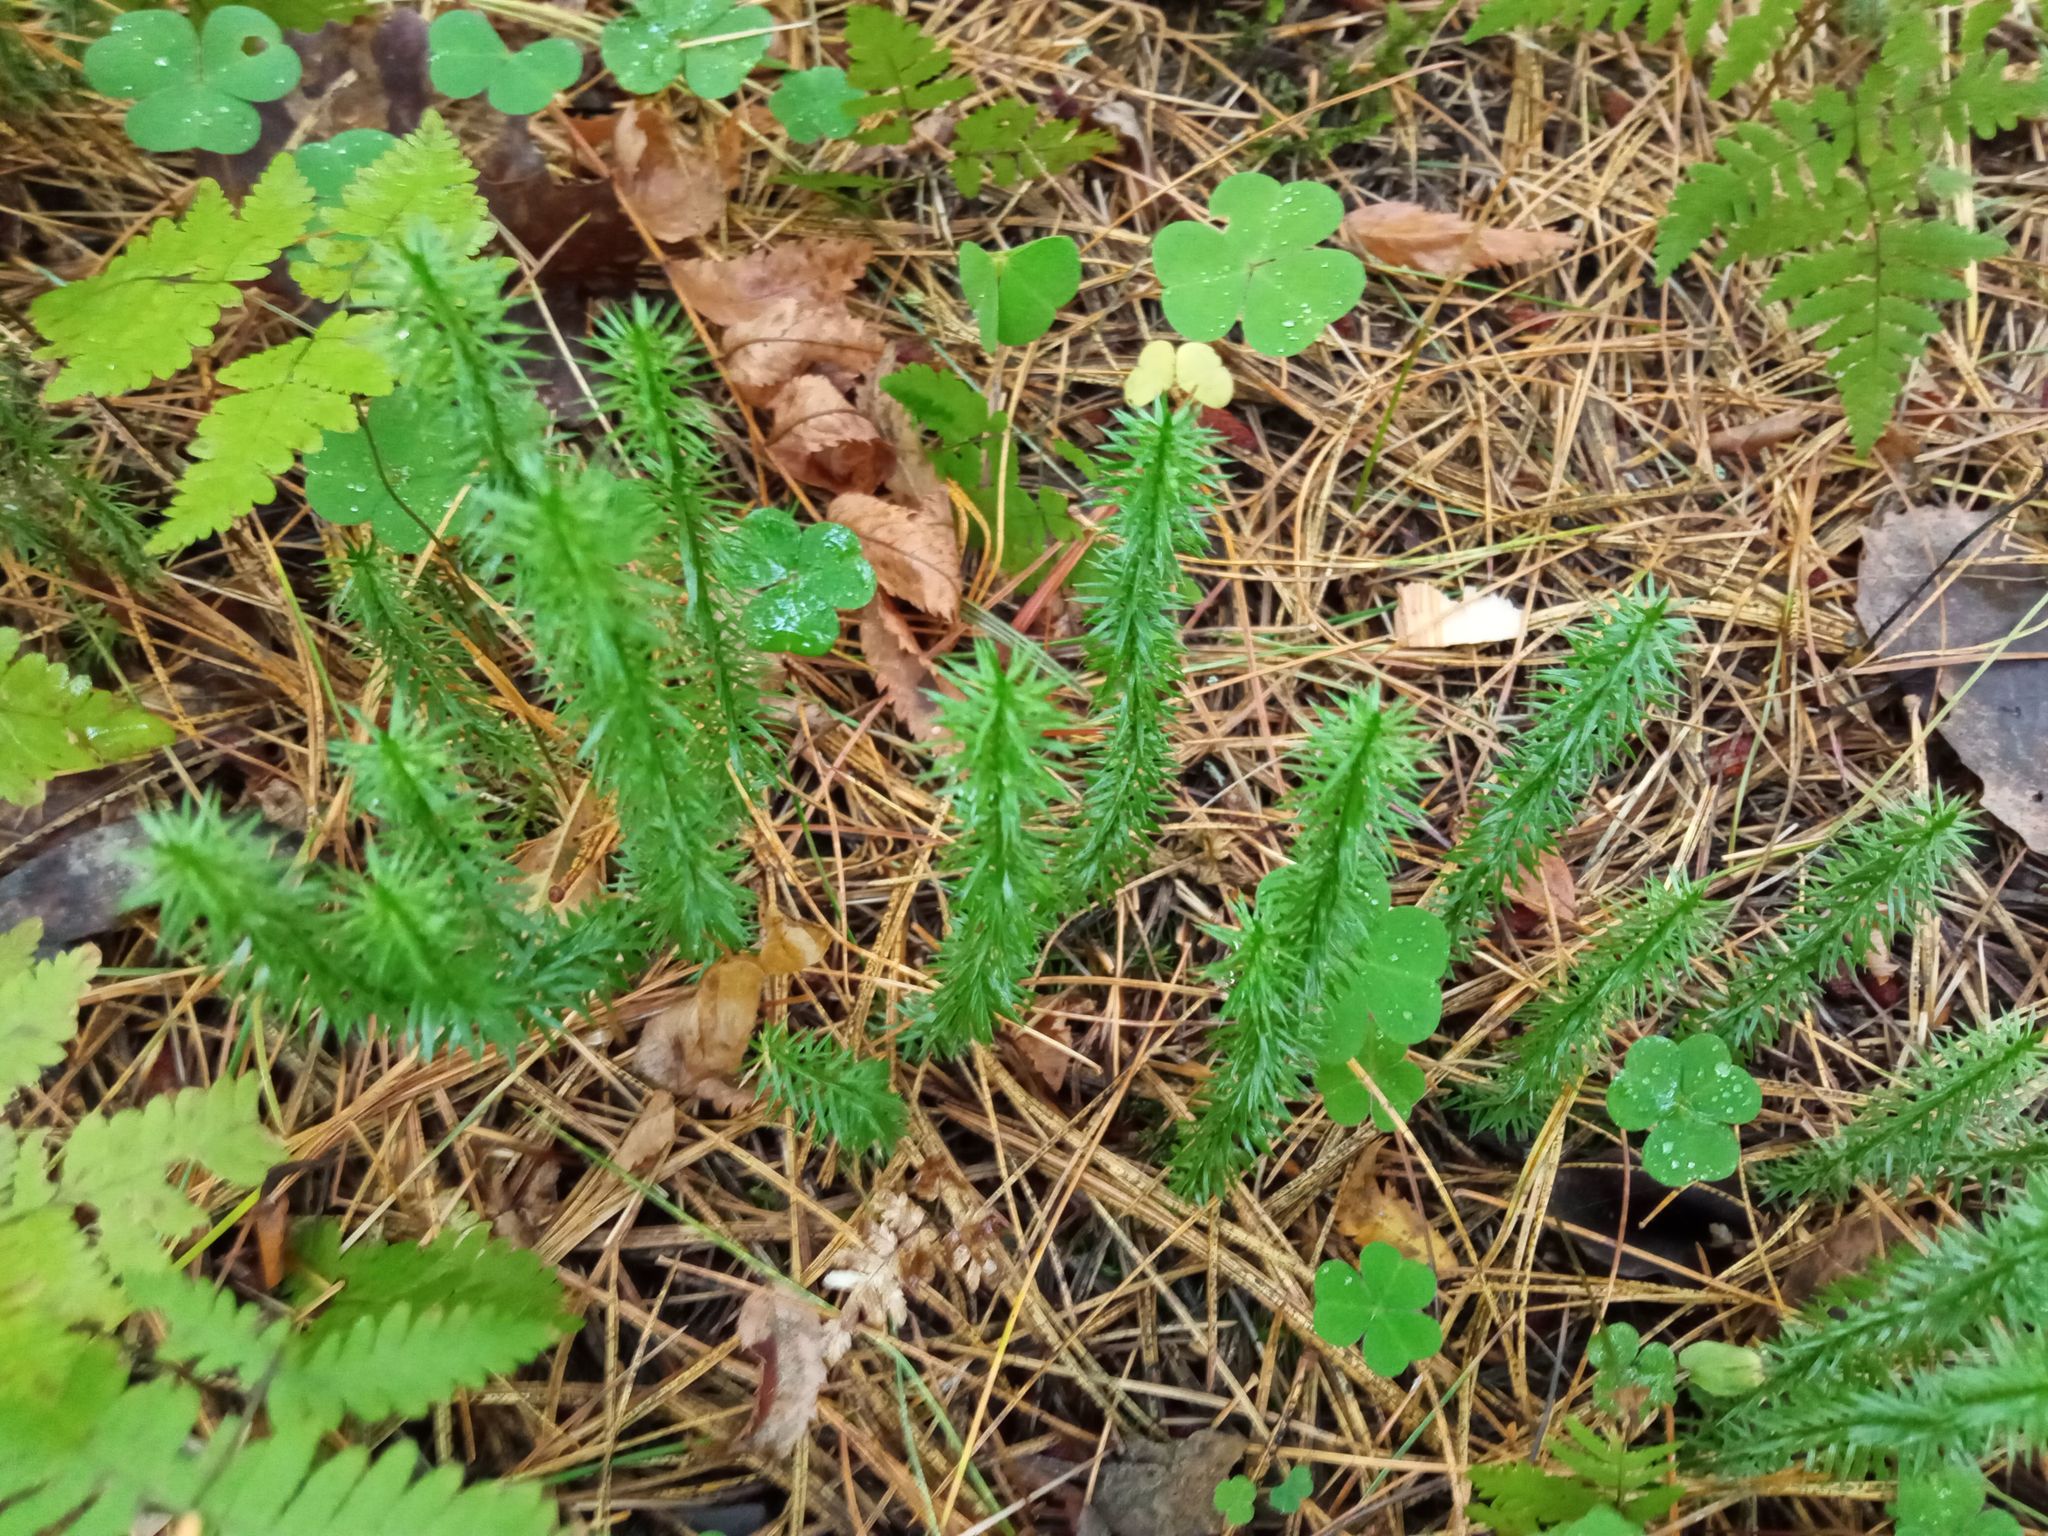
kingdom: Plantae
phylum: Tracheophyta
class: Lycopodiopsida
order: Lycopodiales
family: Lycopodiaceae
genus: Spinulum
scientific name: Spinulum annotinum
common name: Interrupted club-moss
